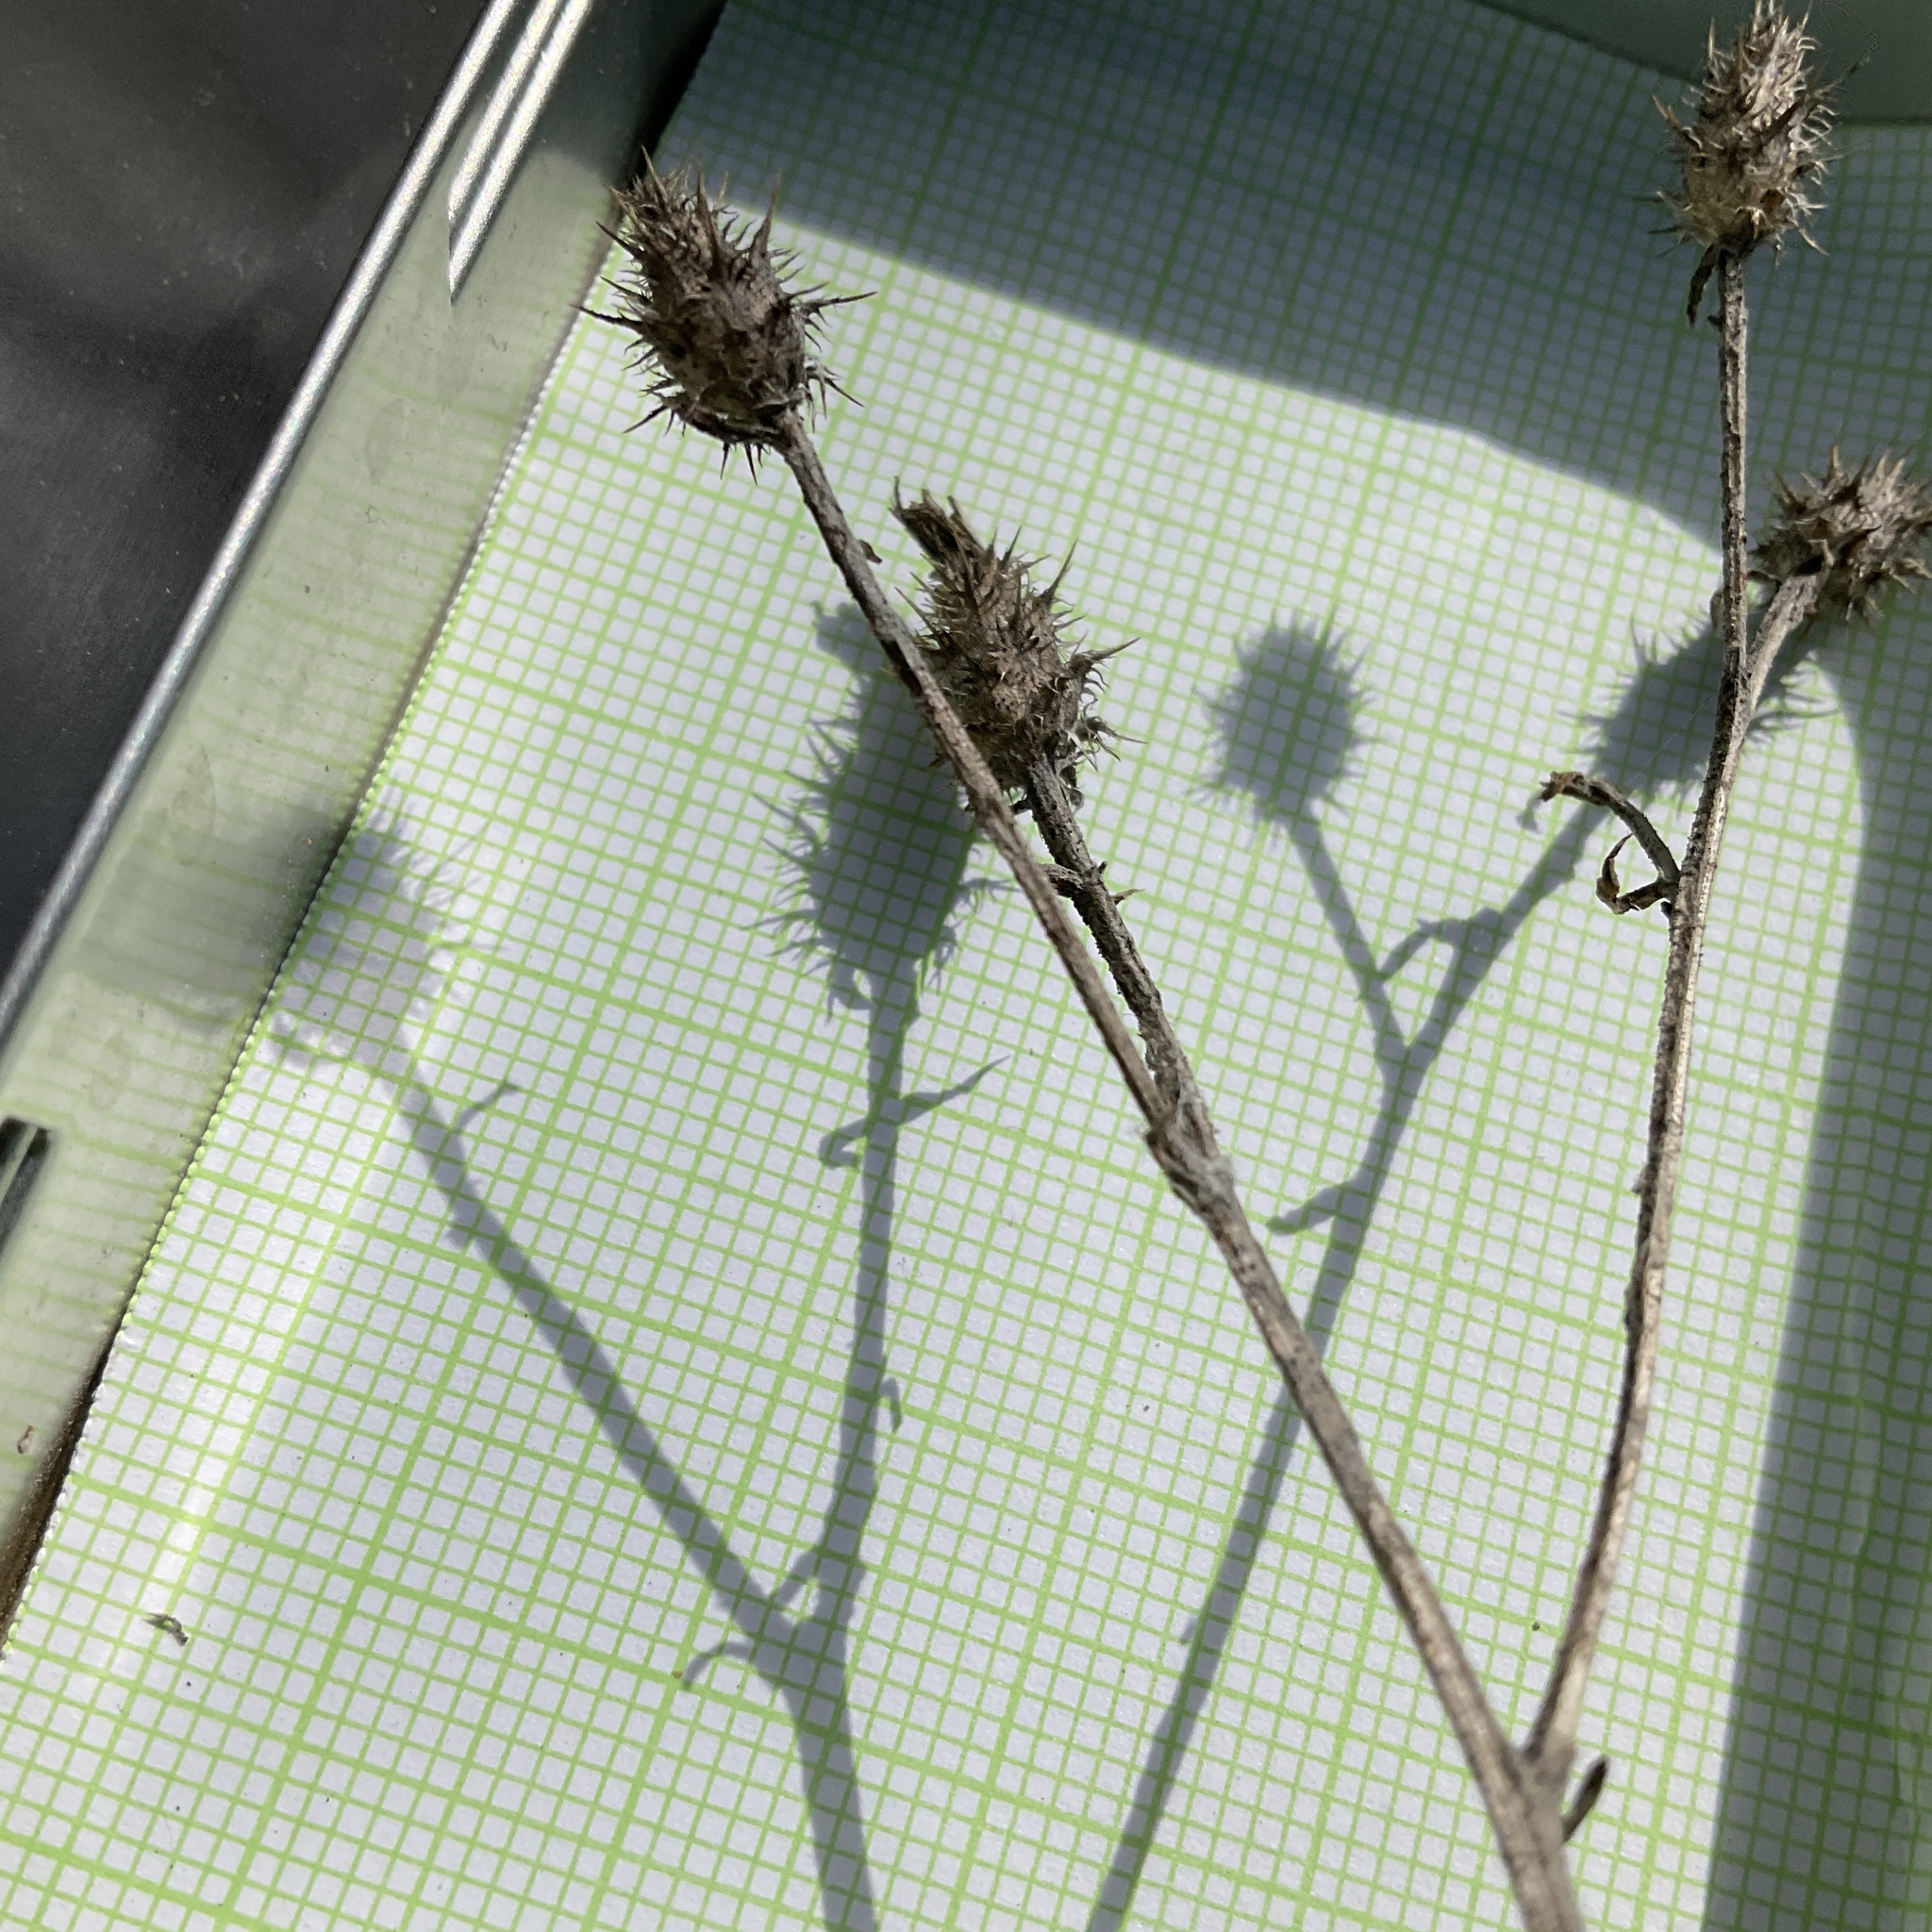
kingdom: Plantae
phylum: Tracheophyta
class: Magnoliopsida
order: Asterales
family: Asteraceae
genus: Centaurea
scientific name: Centaurea diffusa
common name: Diffuse knapweed
